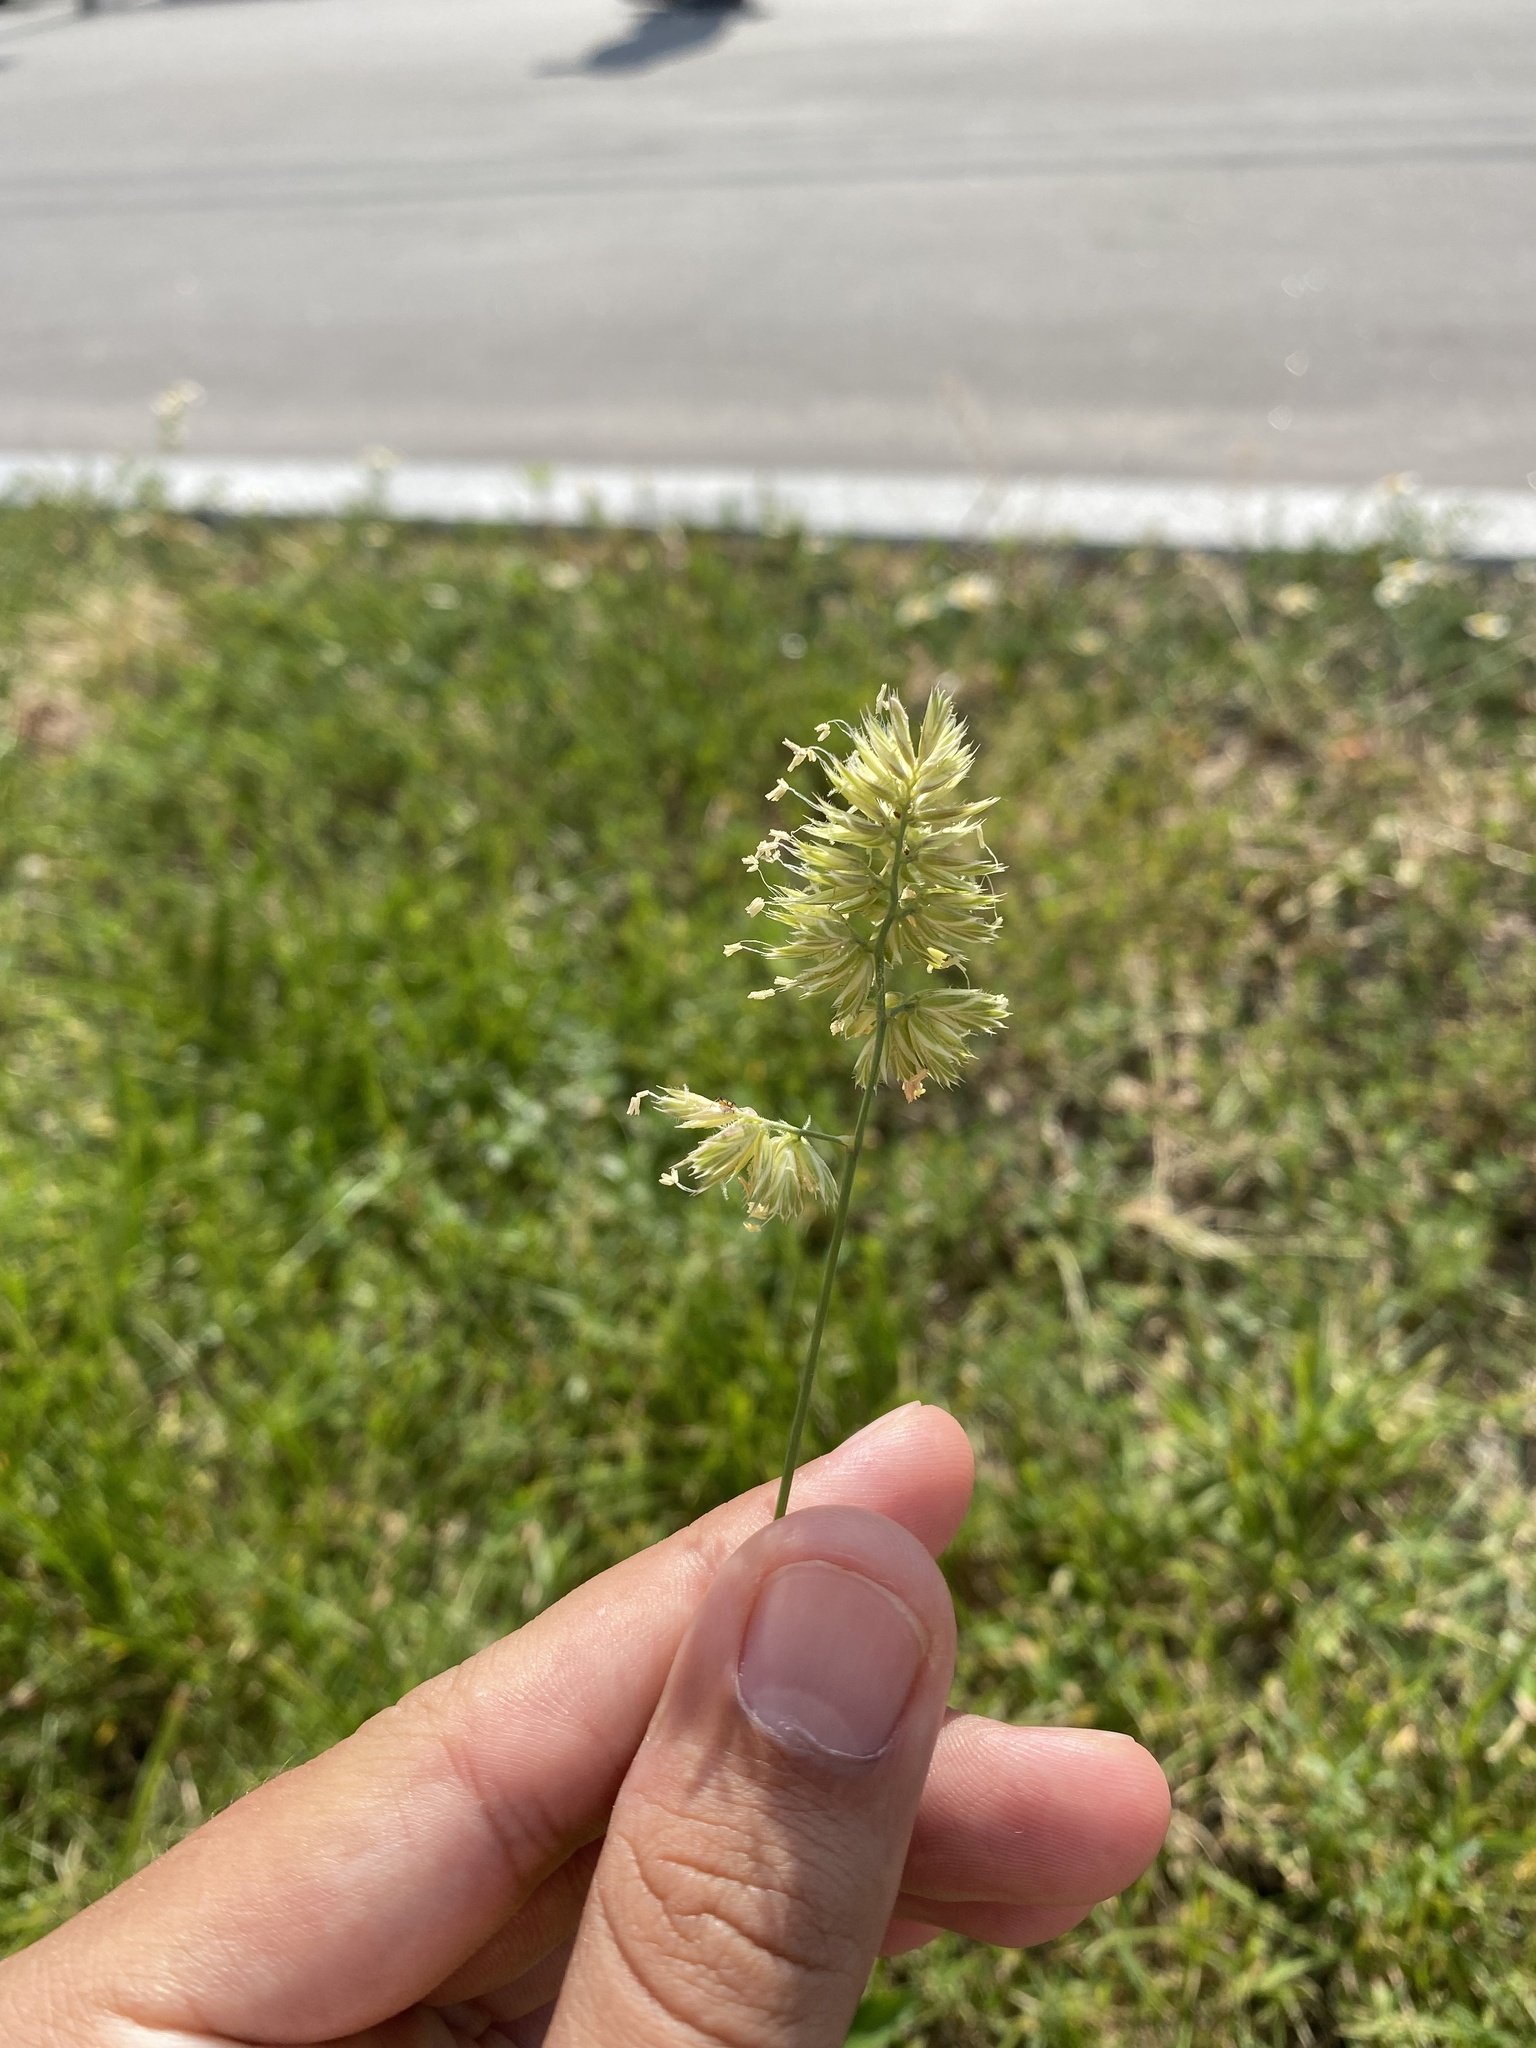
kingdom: Plantae
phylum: Tracheophyta
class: Liliopsida
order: Poales
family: Poaceae
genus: Dactylis
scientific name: Dactylis glomerata
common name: Orchardgrass
